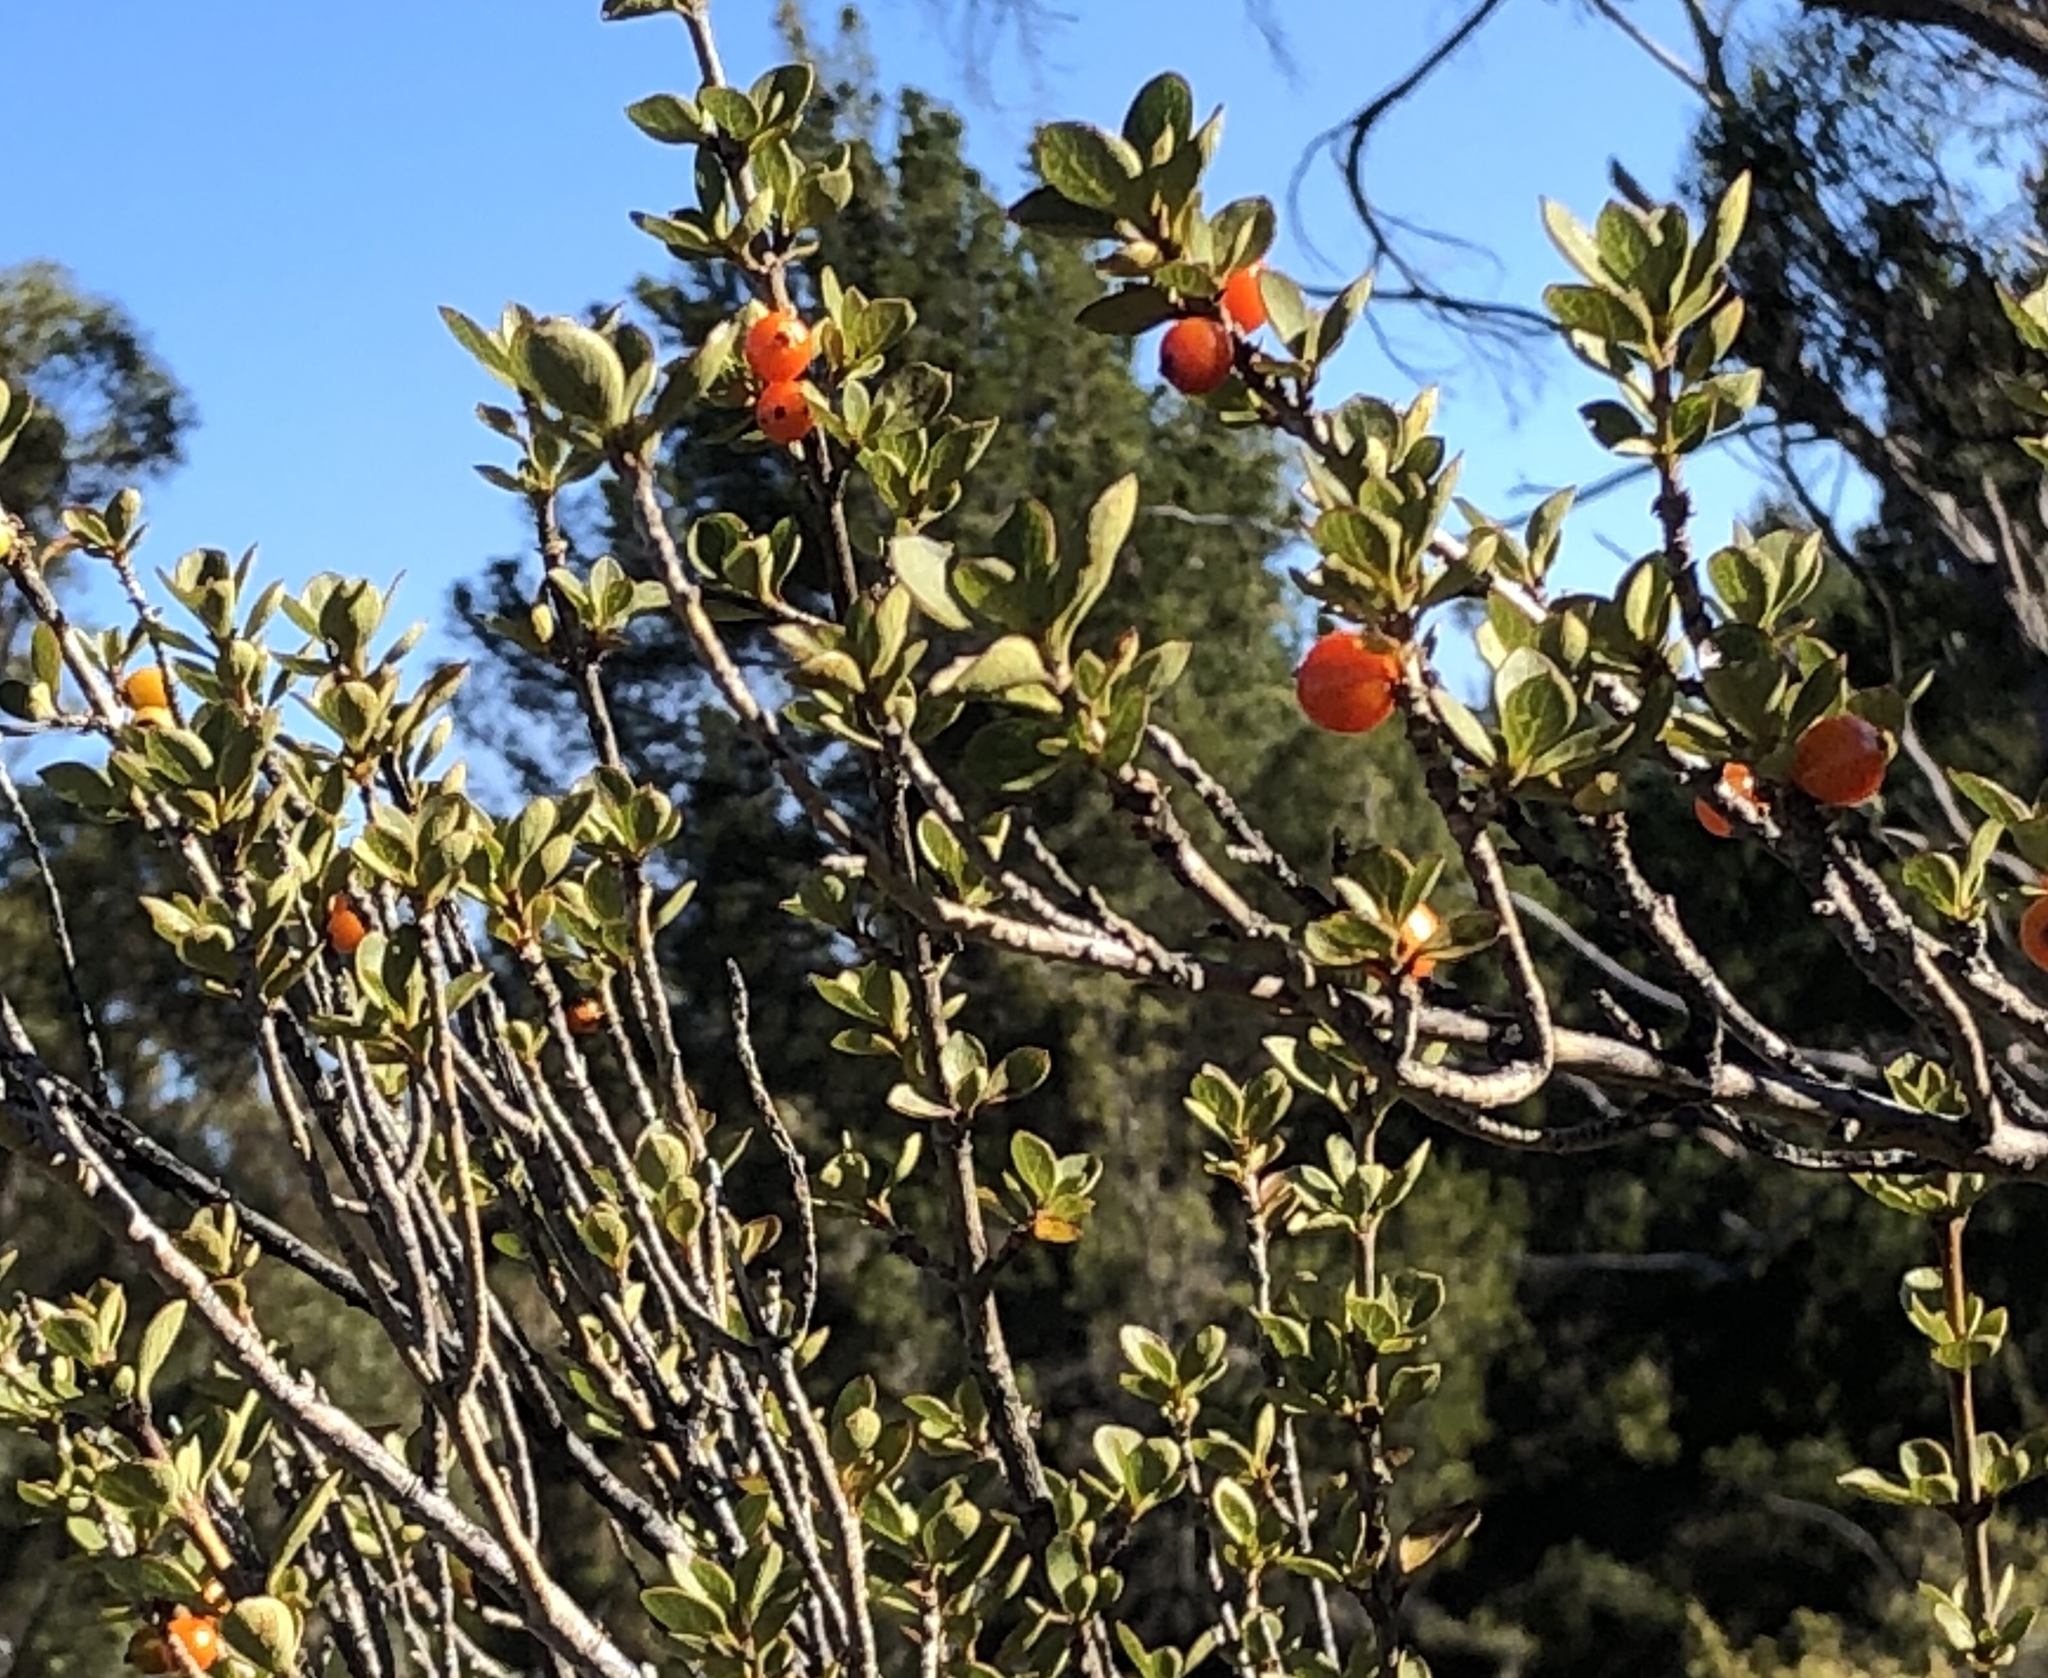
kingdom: Plantae
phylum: Tracheophyta
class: Magnoliopsida
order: Gentianales
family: Rubiaceae
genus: Coprosma
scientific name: Coprosma montana
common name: Alpine mirror plant
